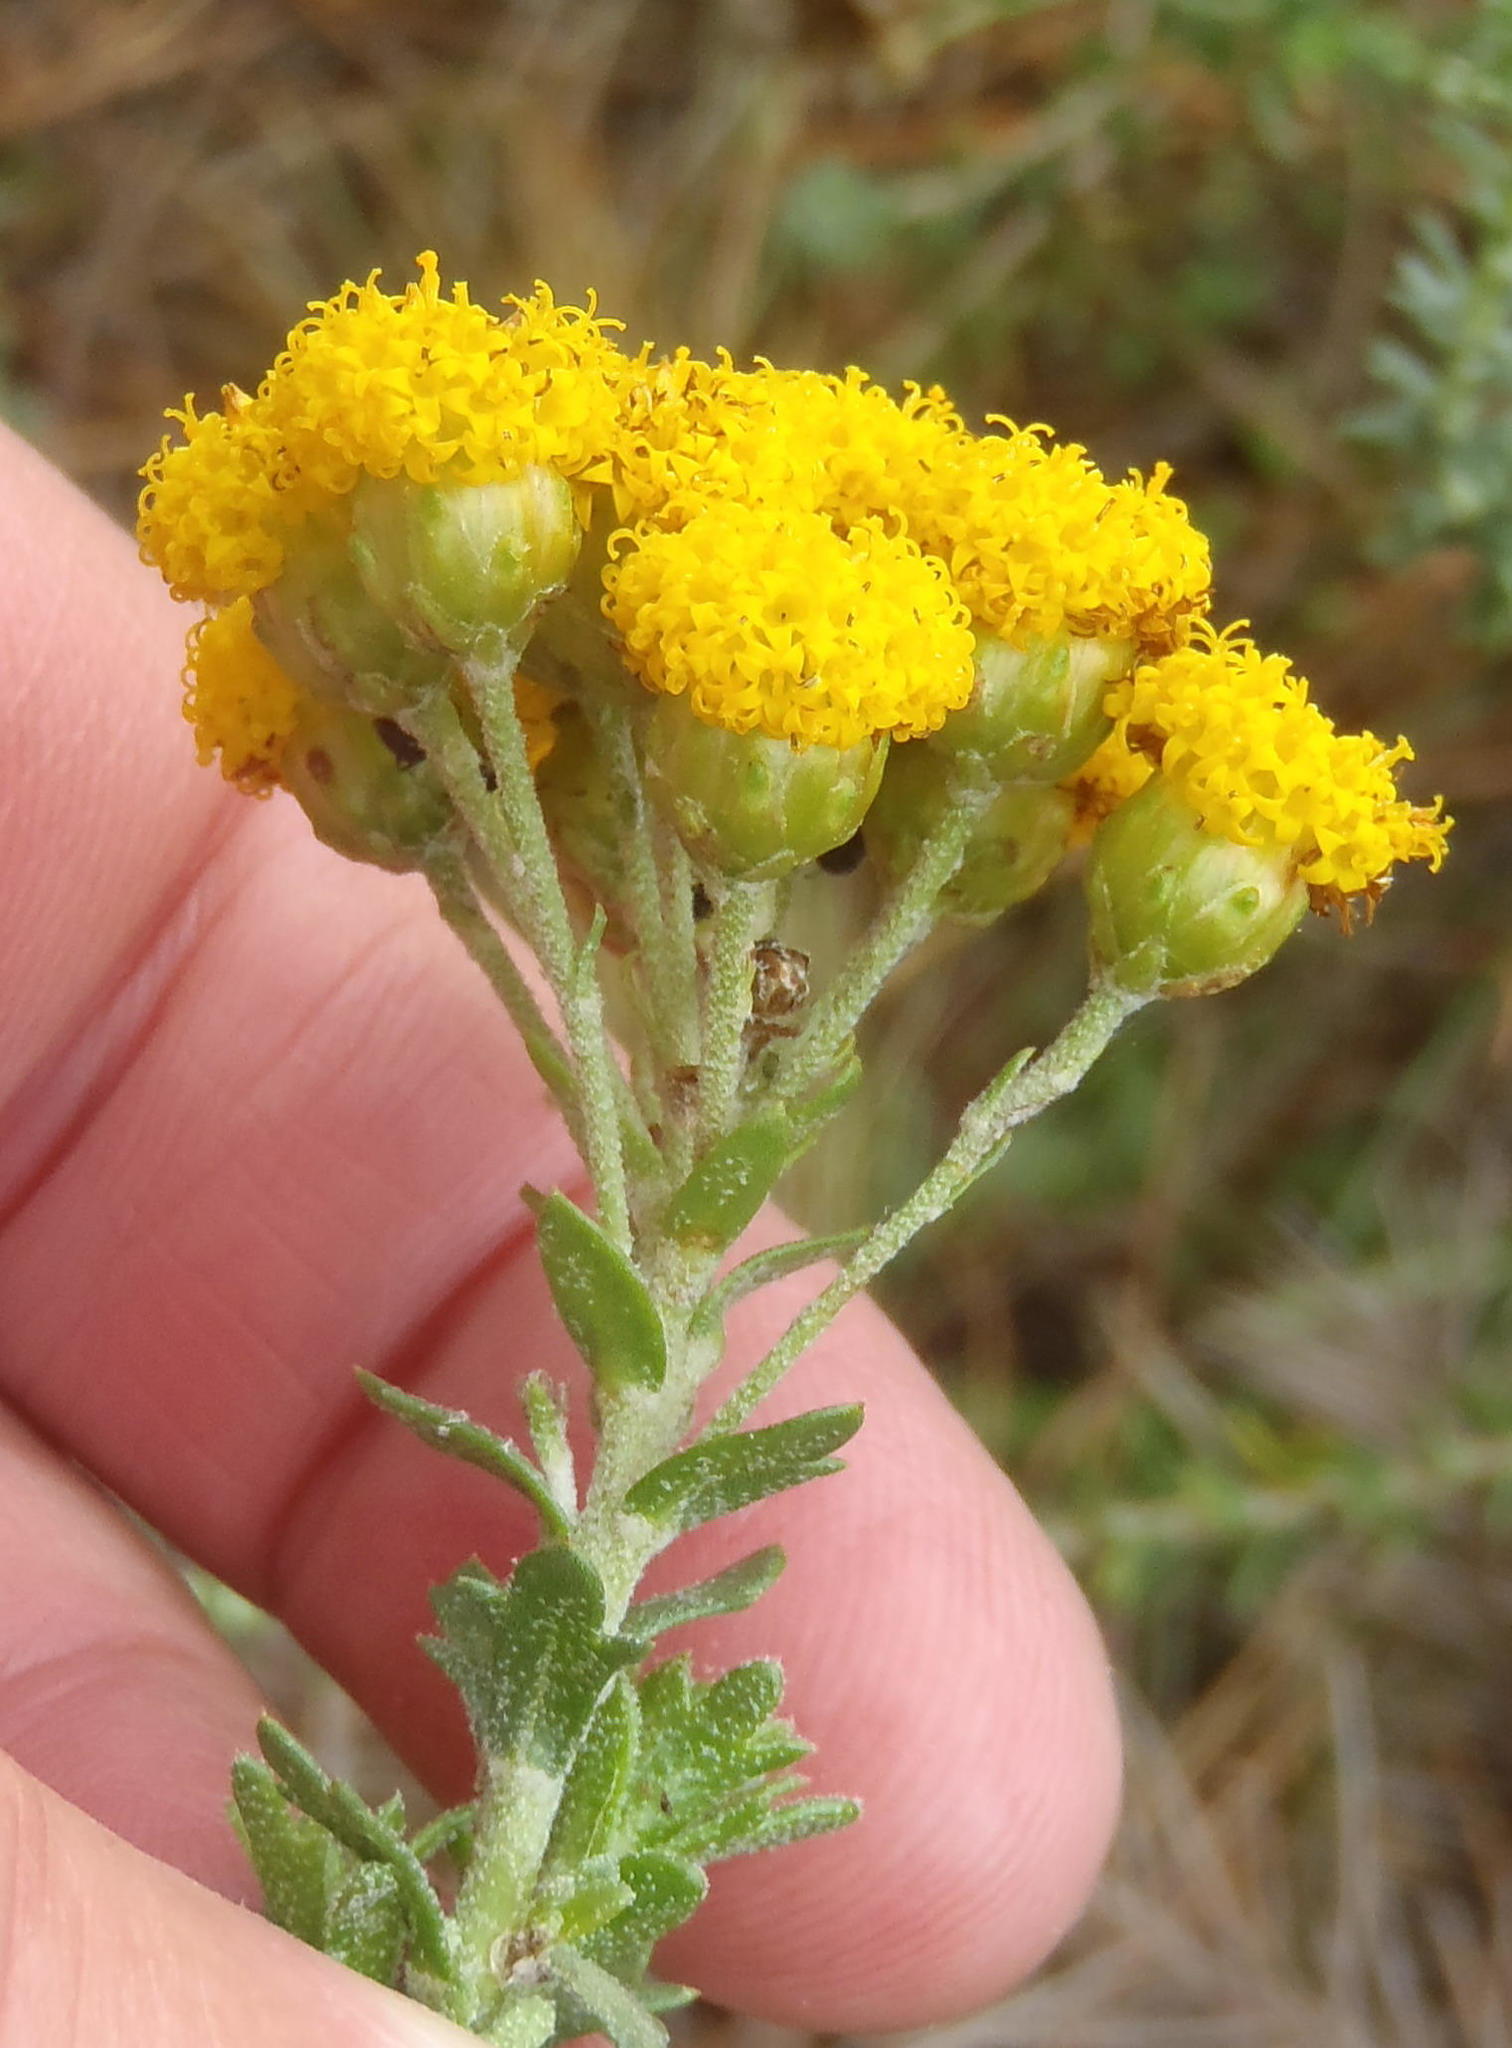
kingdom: Plantae
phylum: Tracheophyta
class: Magnoliopsida
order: Asterales
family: Asteraceae
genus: Athanasia
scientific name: Athanasia trifurcata
